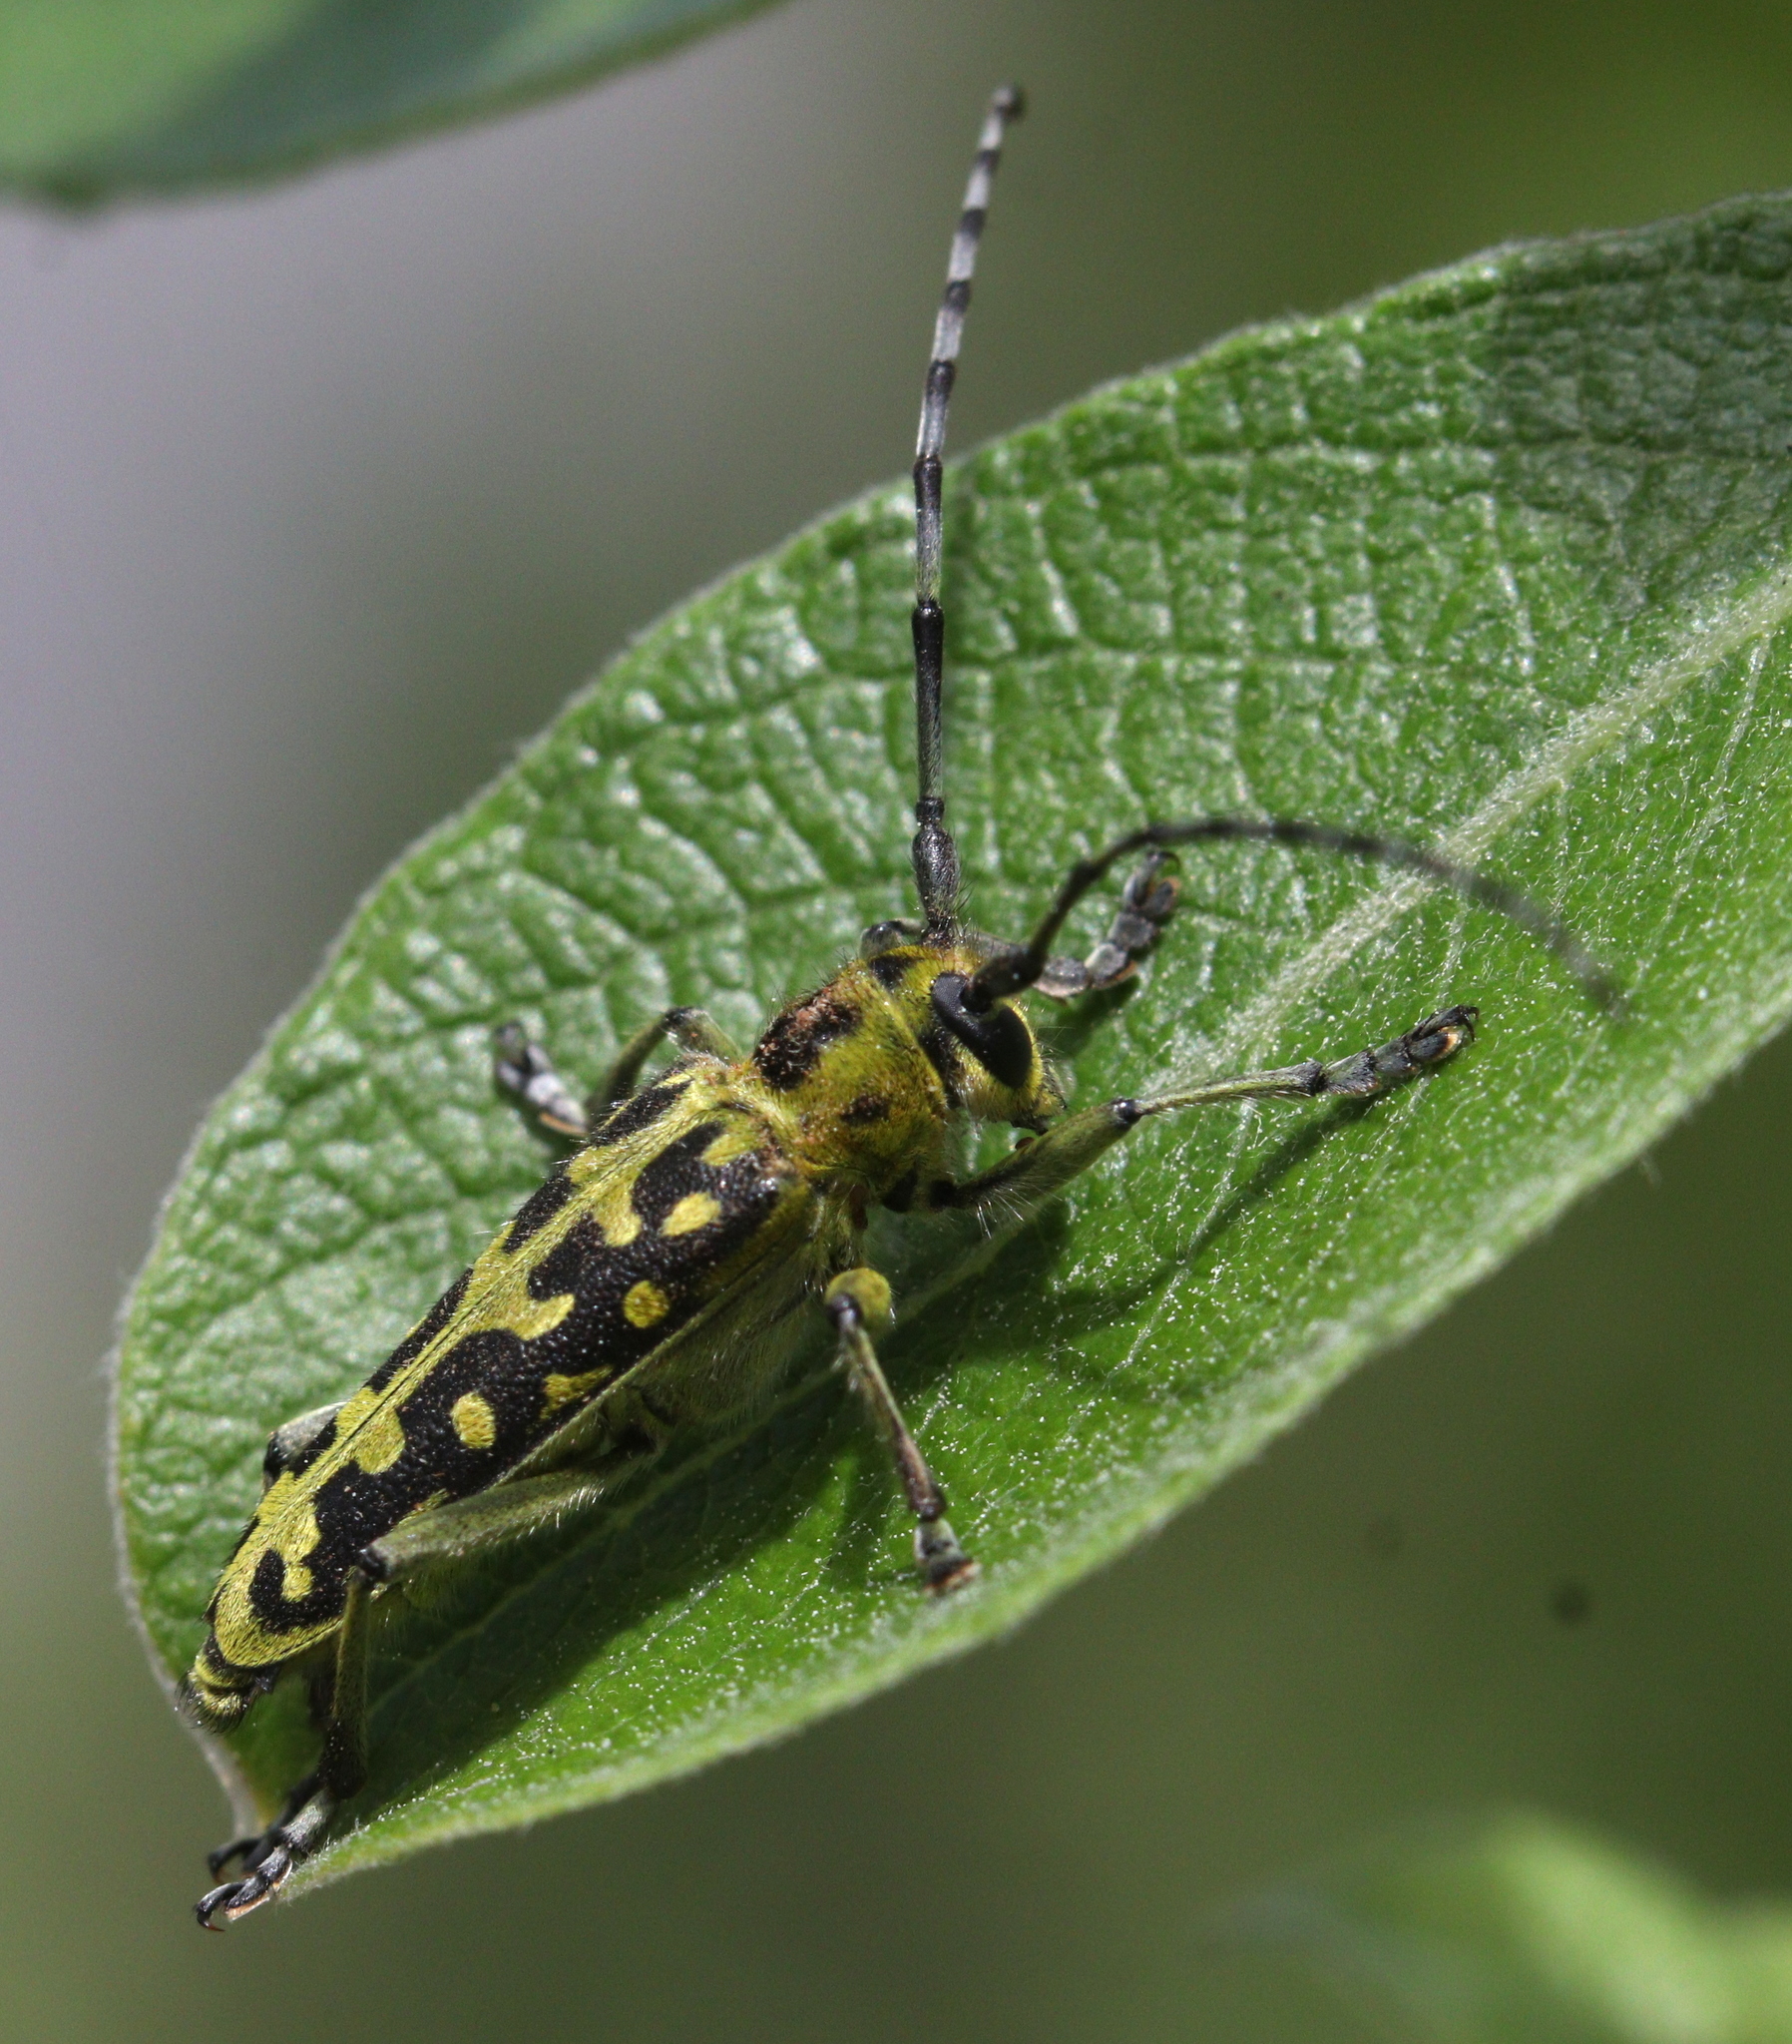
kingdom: Animalia
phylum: Arthropoda
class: Insecta
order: Coleoptera
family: Cerambycidae
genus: Saperda
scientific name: Saperda scalaris
